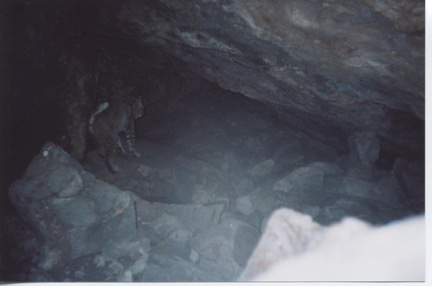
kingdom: Animalia
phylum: Chordata
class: Mammalia
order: Carnivora
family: Felidae
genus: Lynx
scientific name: Lynx rufus
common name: Bobcat
